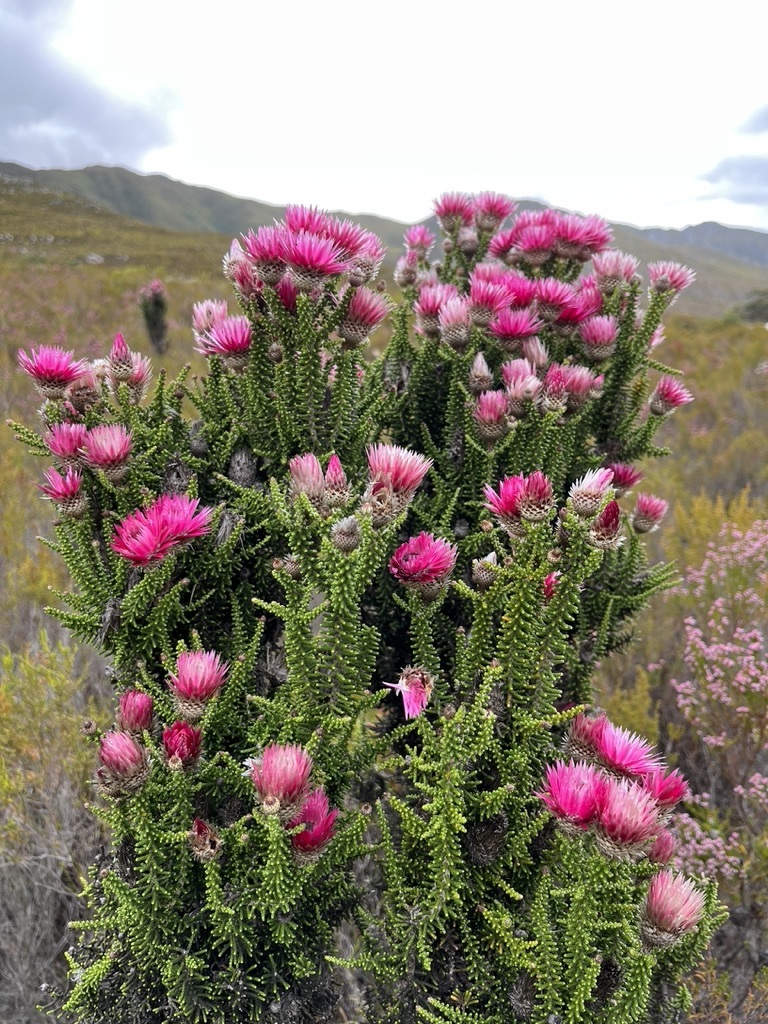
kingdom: Plantae
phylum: Tracheophyta
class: Magnoliopsida
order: Asterales
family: Asteraceae
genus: Phaenocoma
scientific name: Phaenocoma prolifera
